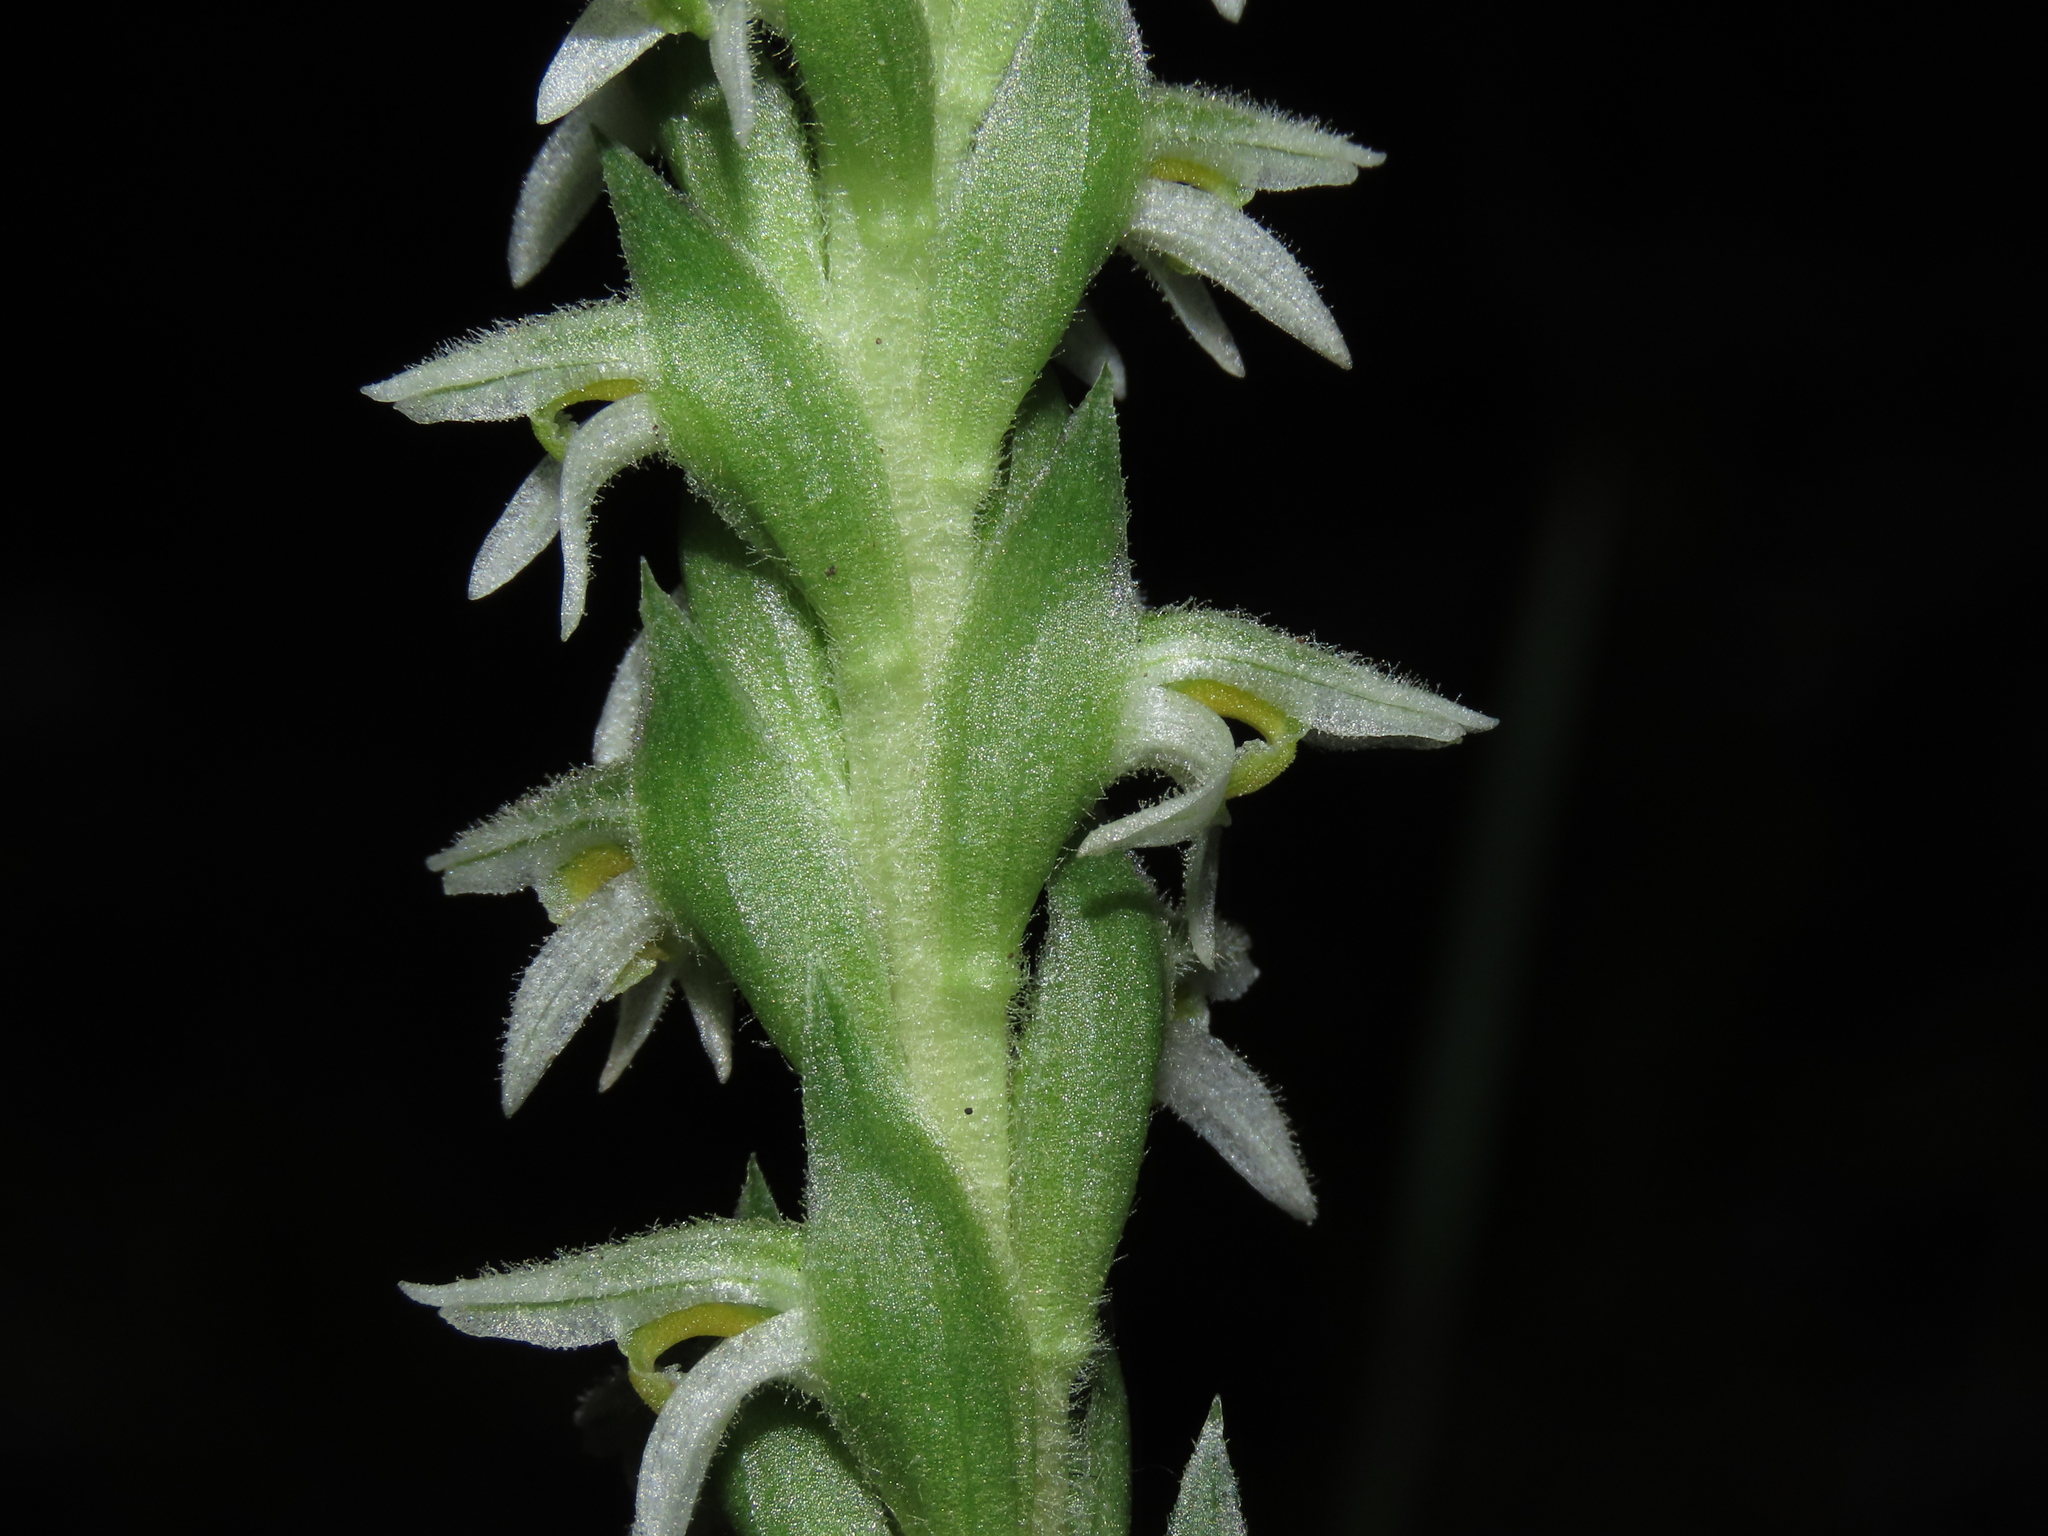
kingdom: Plantae
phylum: Tracheophyta
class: Liliopsida
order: Asparagales
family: Orchidaceae
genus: Brachystele
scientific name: Brachystele unilateralis
